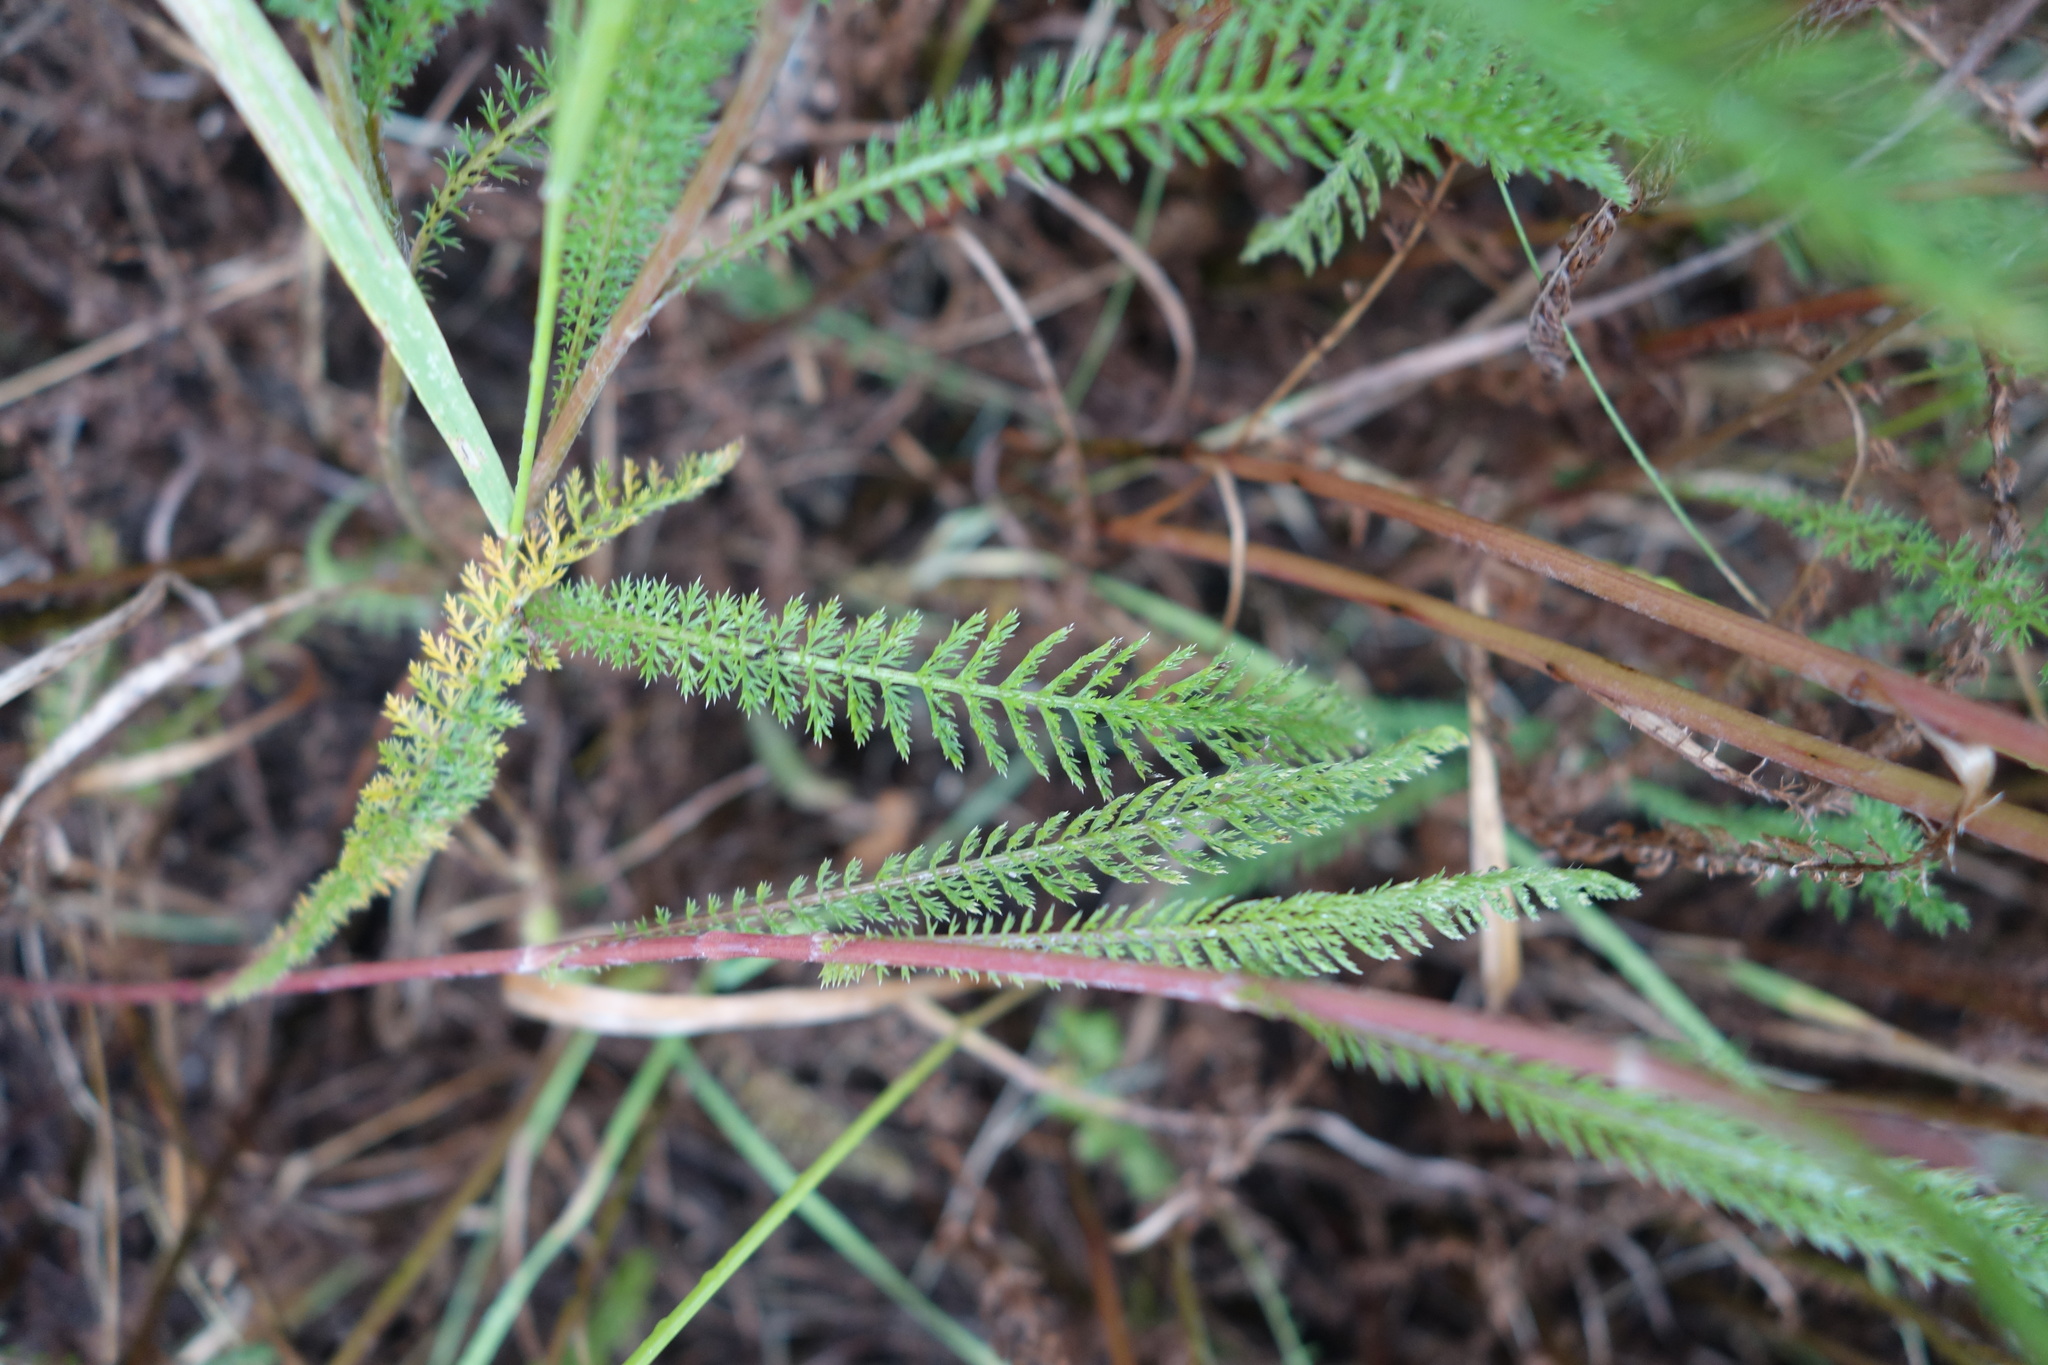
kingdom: Plantae
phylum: Tracheophyta
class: Magnoliopsida
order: Asterales
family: Asteraceae
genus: Achillea
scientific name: Achillea millefolium
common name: Yarrow
